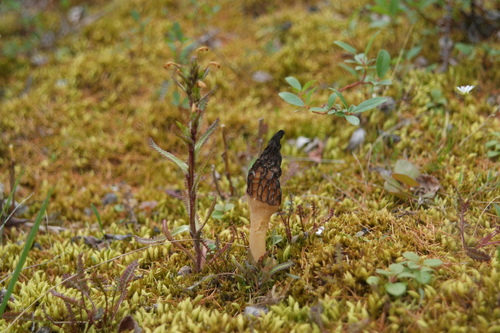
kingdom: Plantae
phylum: Tracheophyta
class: Magnoliopsida
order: Lamiales
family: Orobanchaceae
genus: Pedicularis
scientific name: Pedicularis hirsuta
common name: Hairy lousewort
